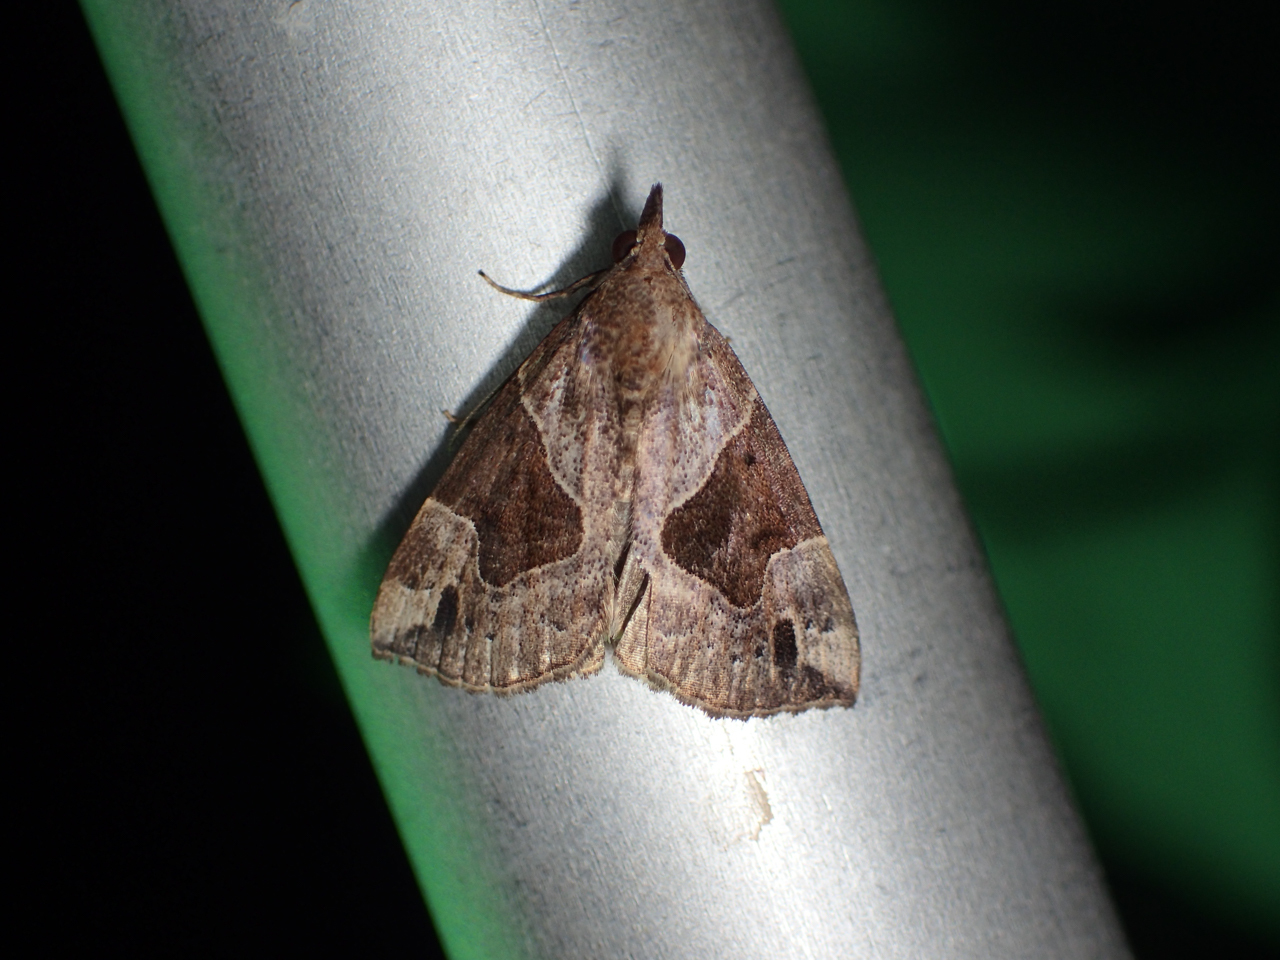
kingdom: Animalia
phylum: Arthropoda
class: Insecta
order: Lepidoptera
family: Erebidae
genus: Hypena
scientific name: Hypena manalis
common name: Flowing-line bomolocha moth
